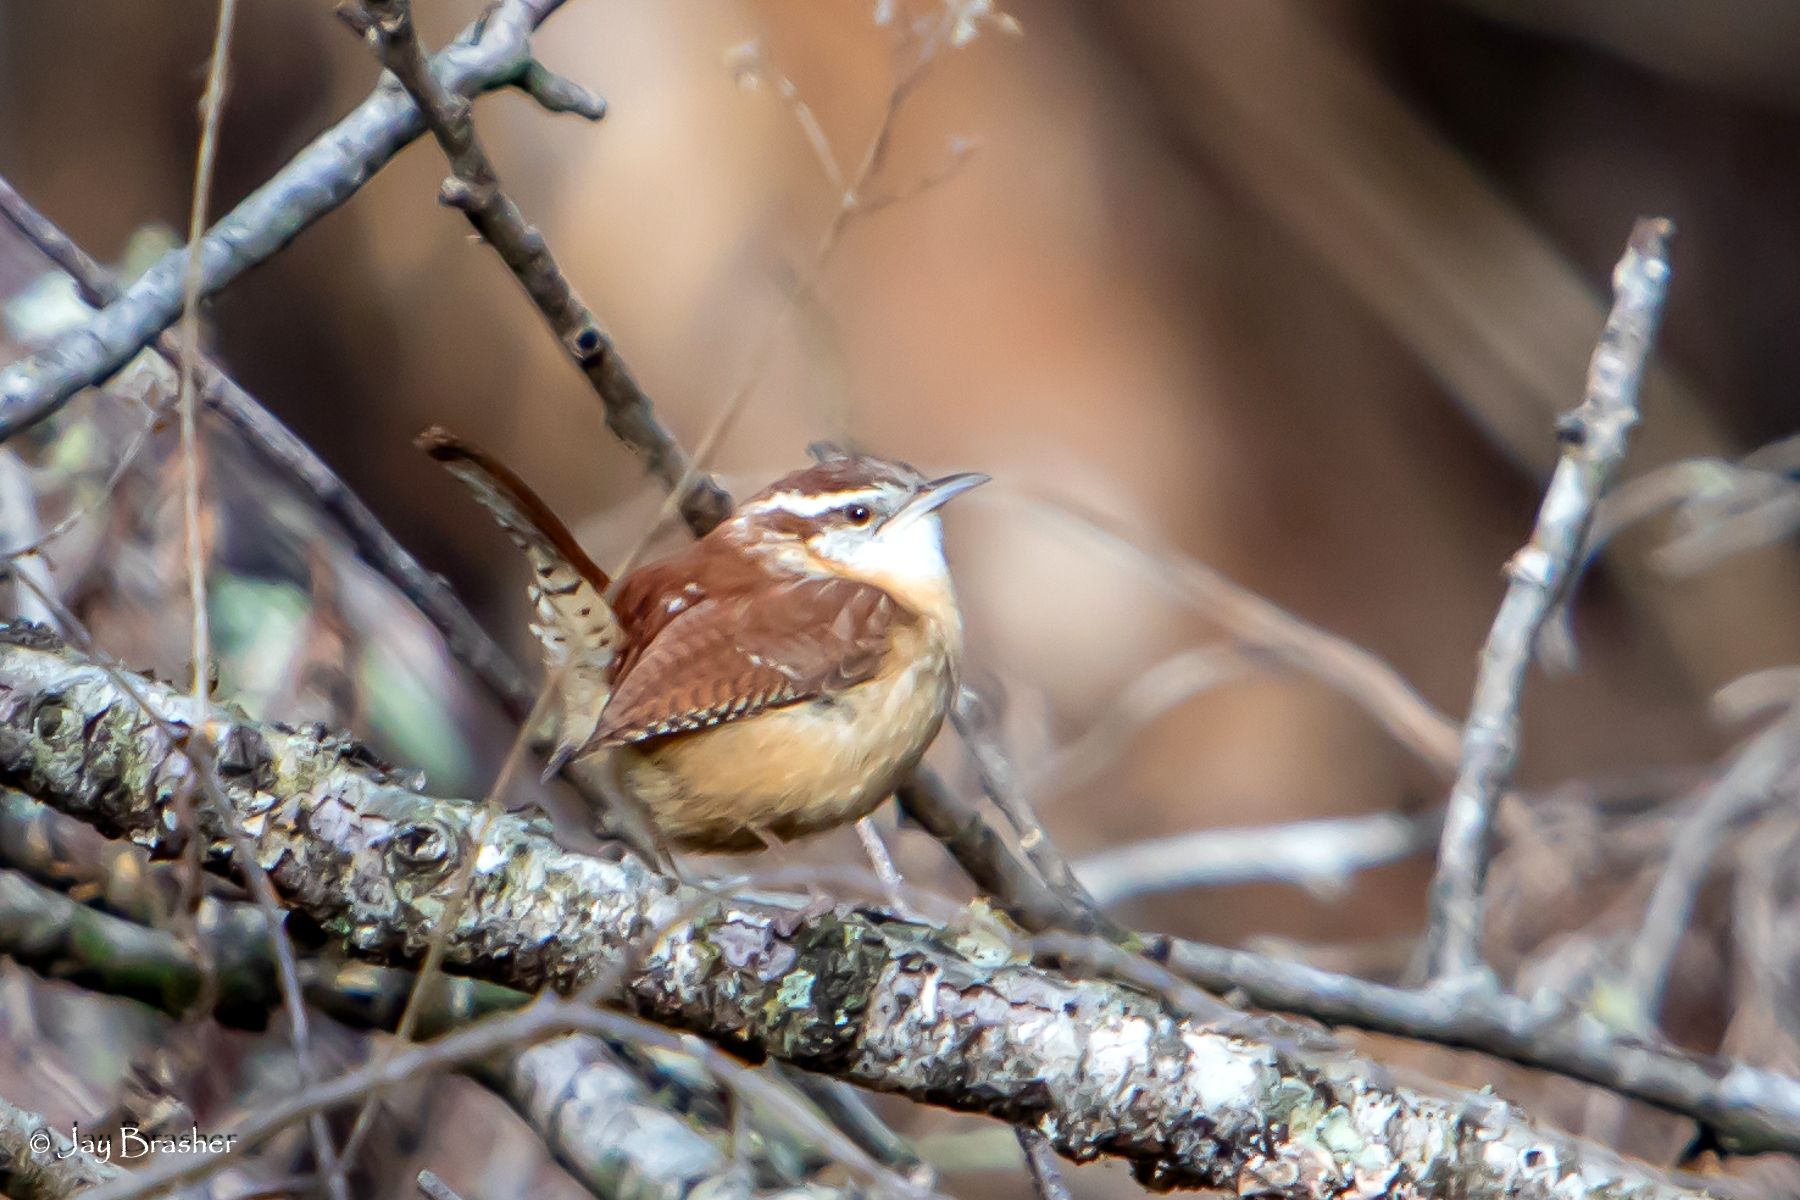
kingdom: Animalia
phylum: Chordata
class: Aves
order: Passeriformes
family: Troglodytidae
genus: Thryothorus
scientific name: Thryothorus ludovicianus
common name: Carolina wren
